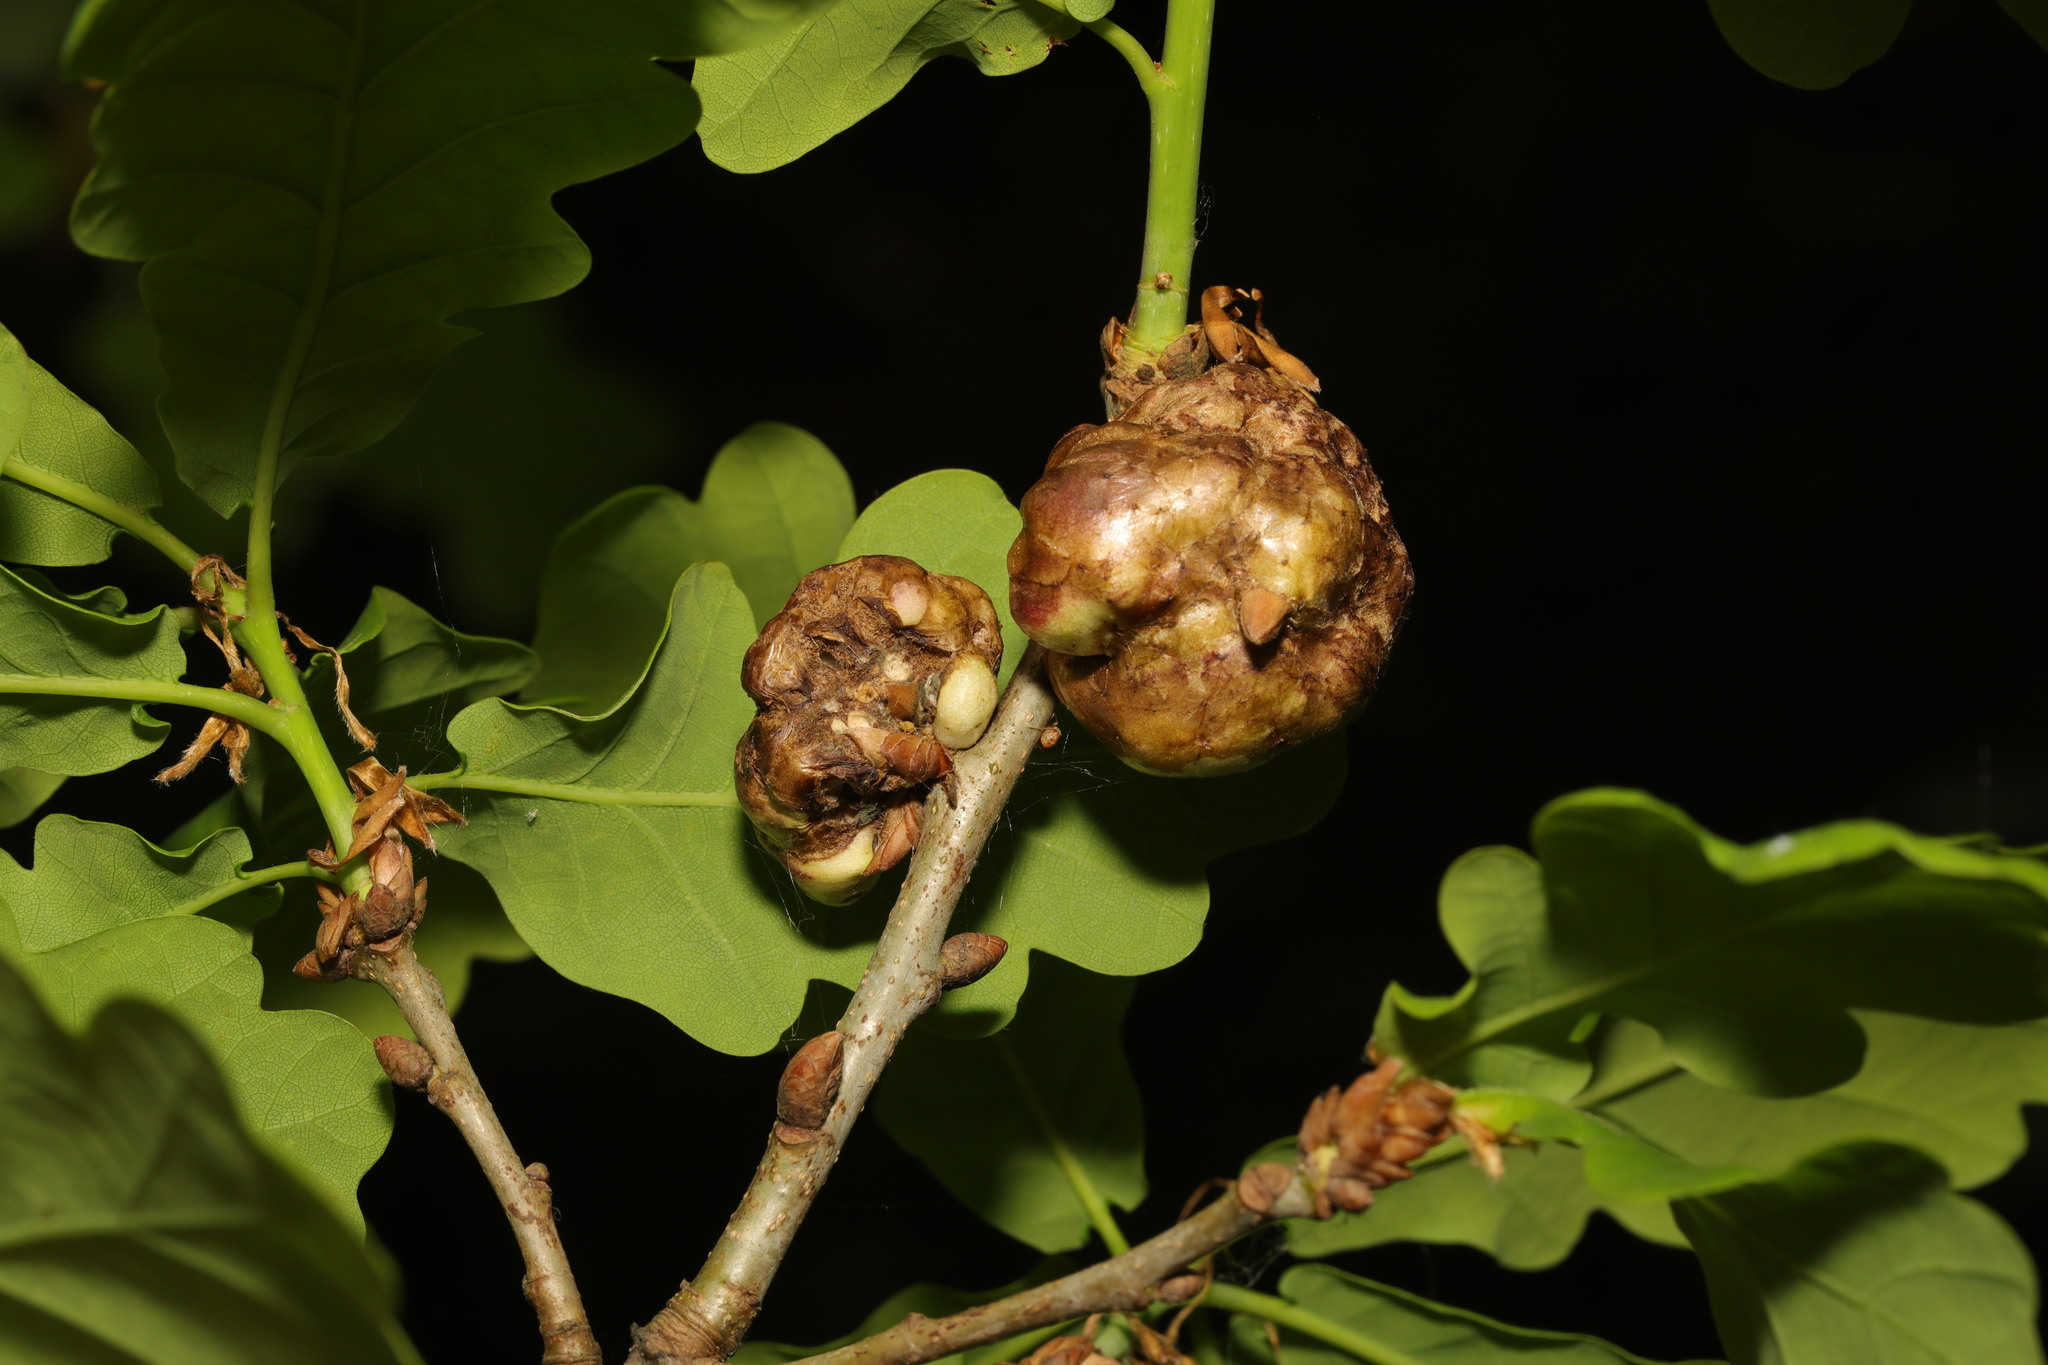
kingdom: Animalia
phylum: Arthropoda
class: Insecta
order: Hymenoptera
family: Cynipidae
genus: Biorhiza
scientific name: Biorhiza pallida
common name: Oak apple
